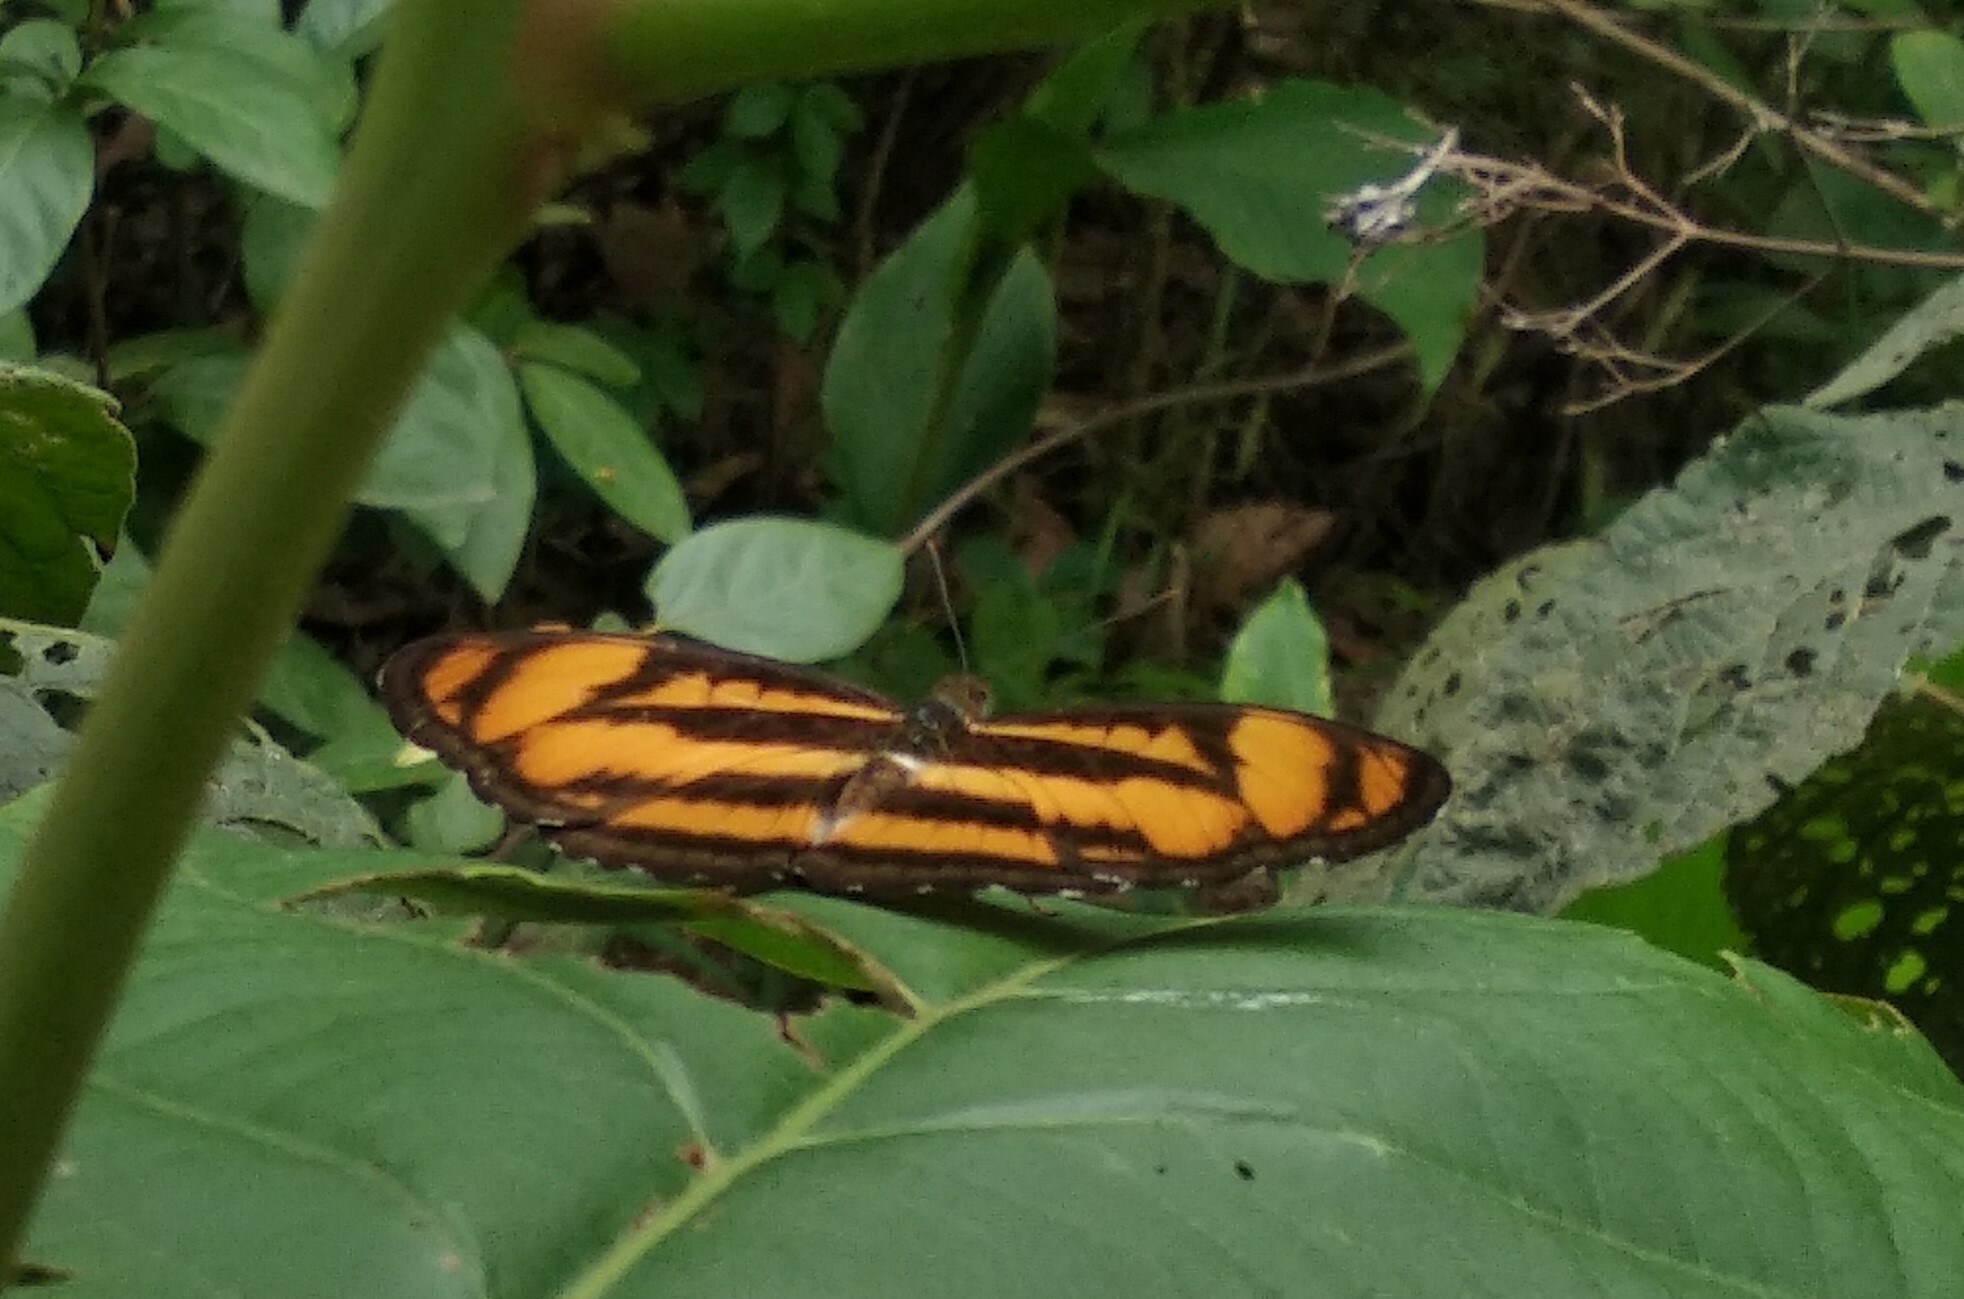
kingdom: Animalia
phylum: Arthropoda
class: Insecta
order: Lepidoptera
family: Nymphalidae
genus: Parathyma
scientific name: Parathyma nefte
